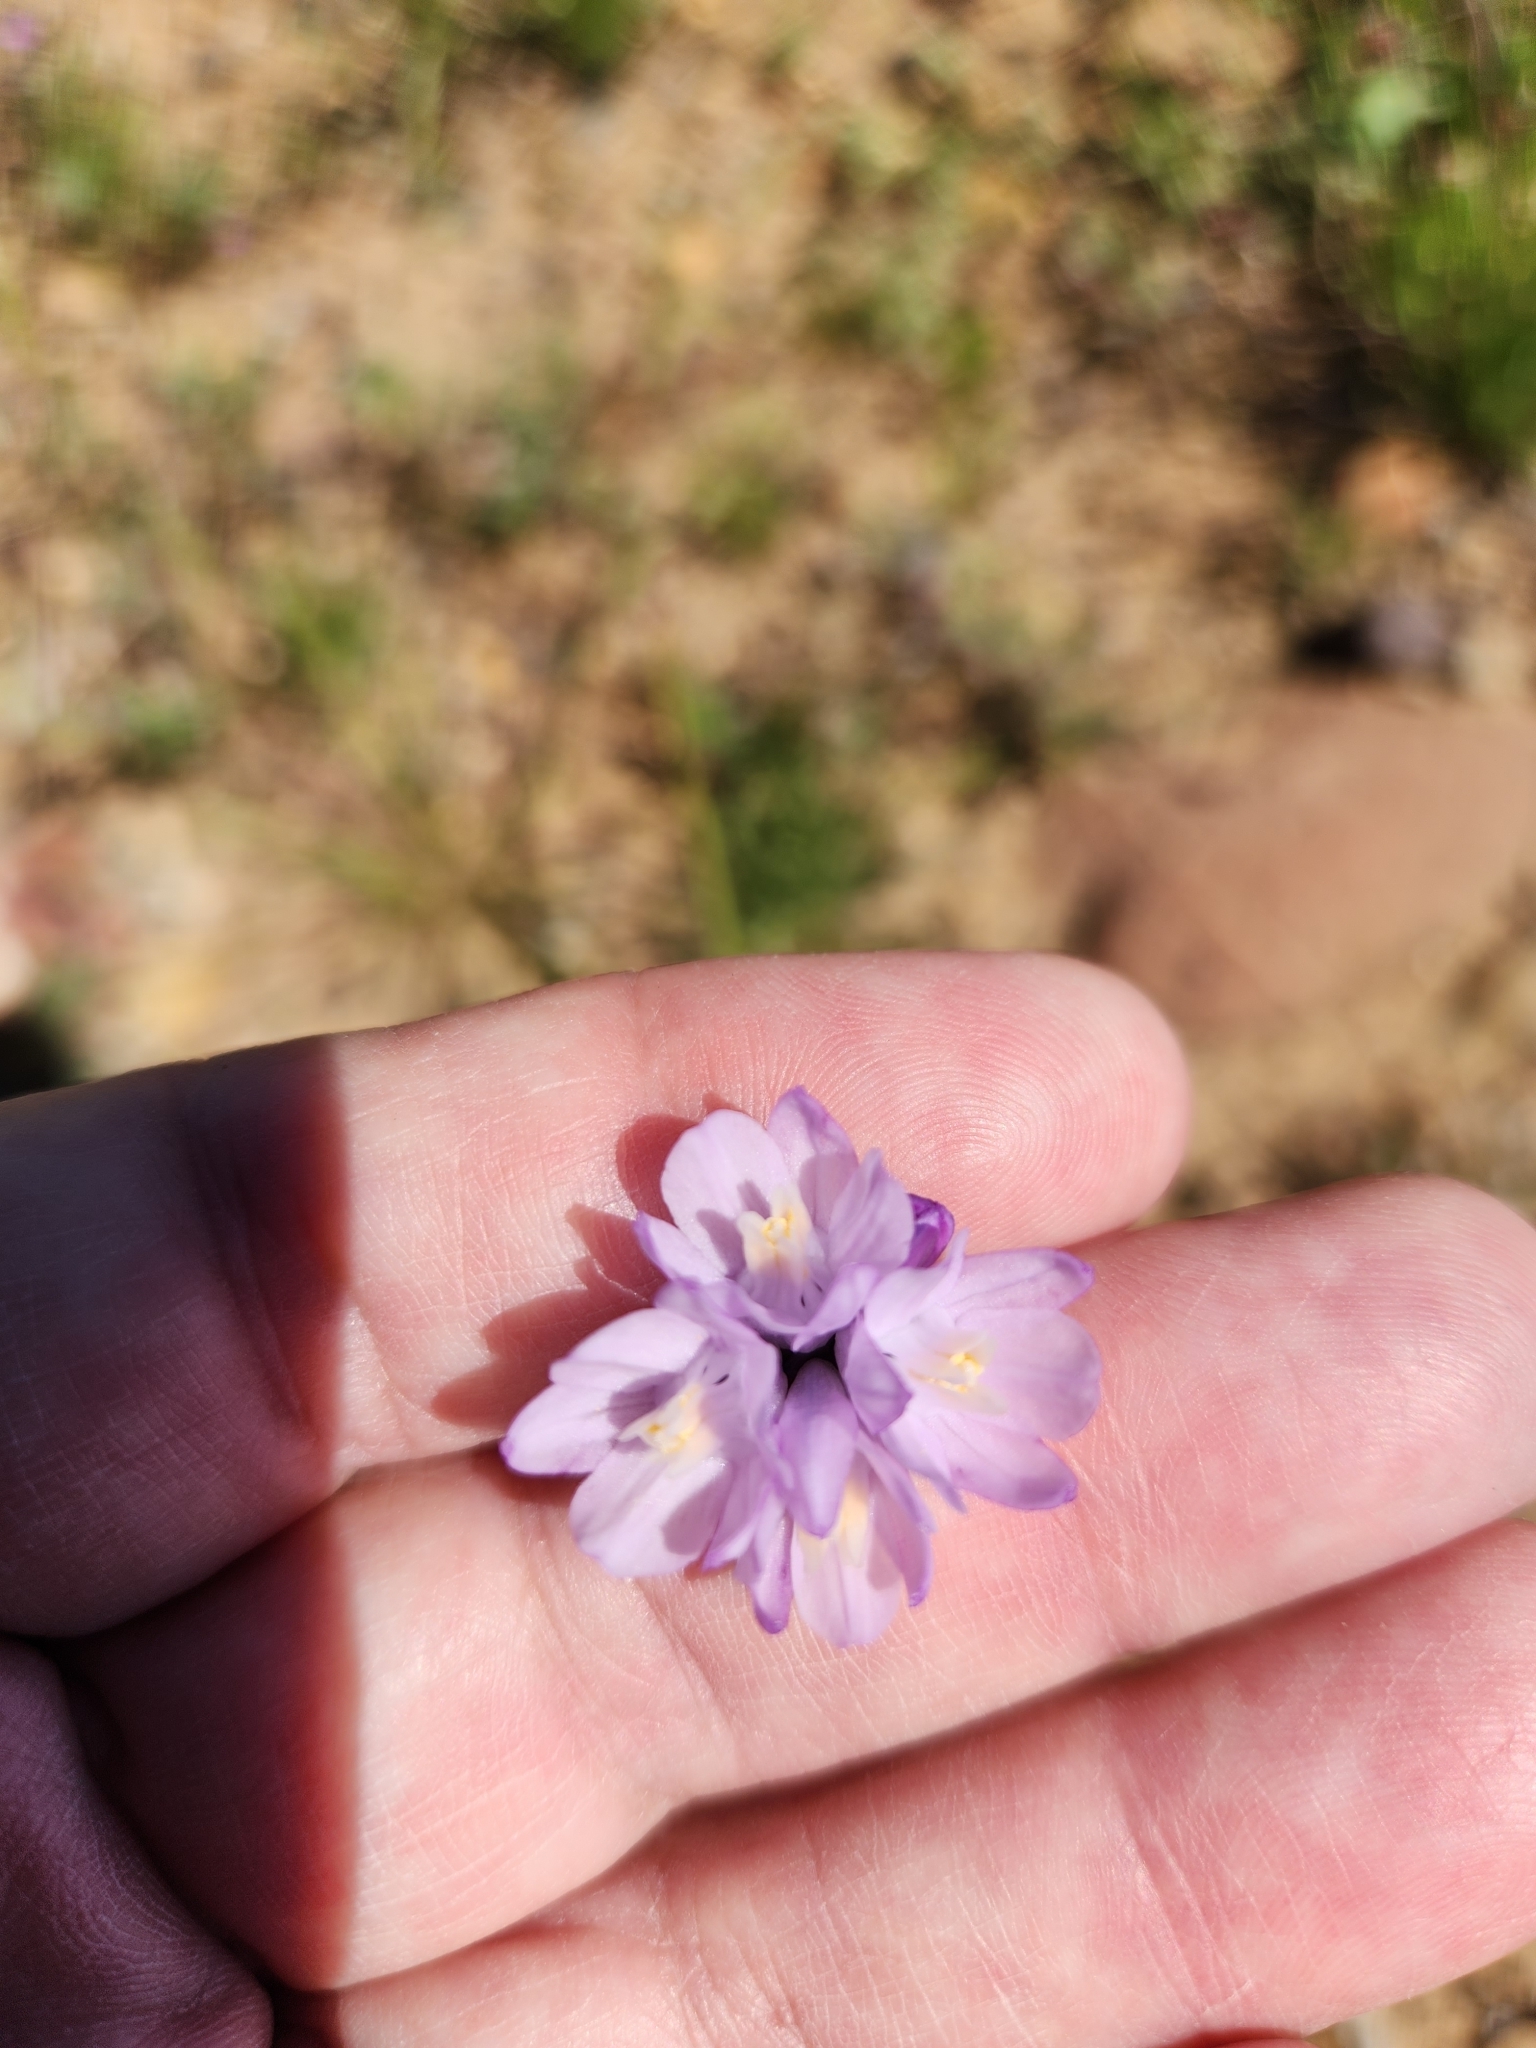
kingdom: Plantae
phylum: Tracheophyta
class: Liliopsida
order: Asparagales
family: Asparagaceae
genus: Dipterostemon
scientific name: Dipterostemon capitatus
